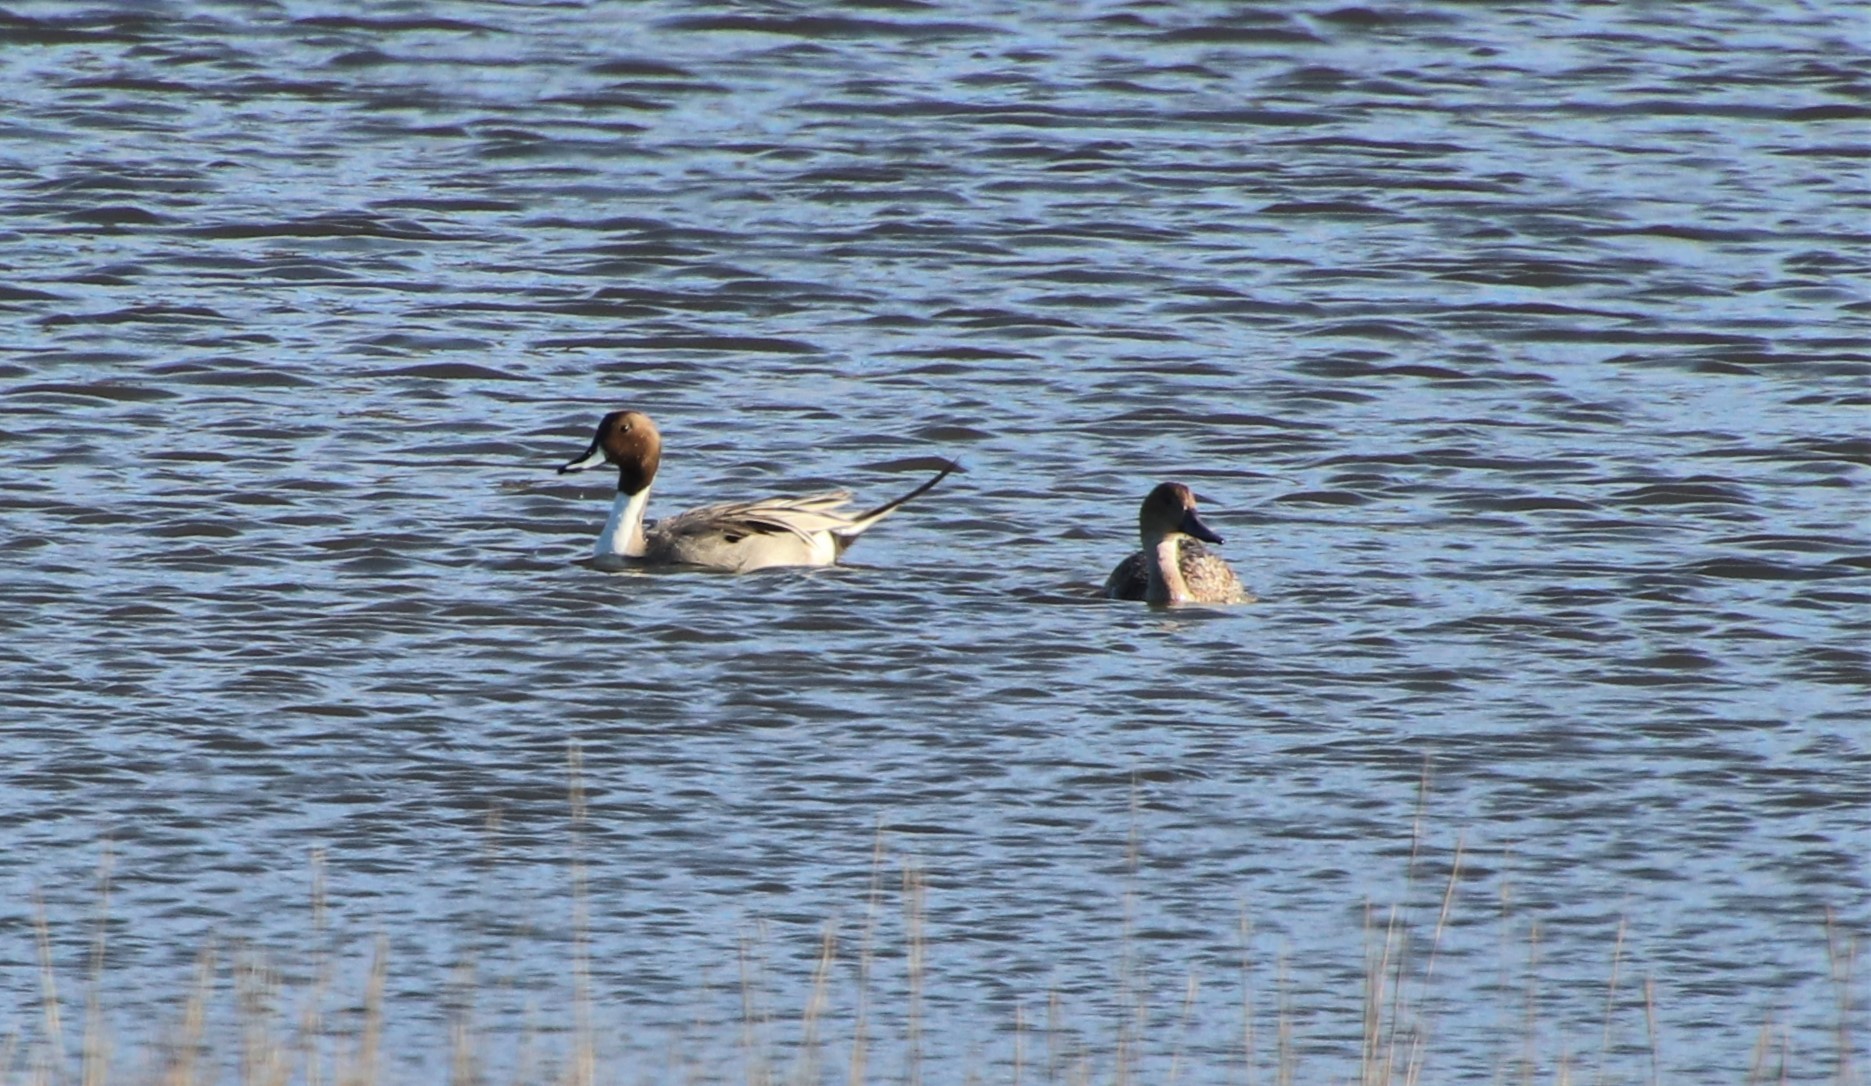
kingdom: Animalia
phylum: Chordata
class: Aves
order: Anseriformes
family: Anatidae
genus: Anas
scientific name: Anas acuta
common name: Northern pintail
